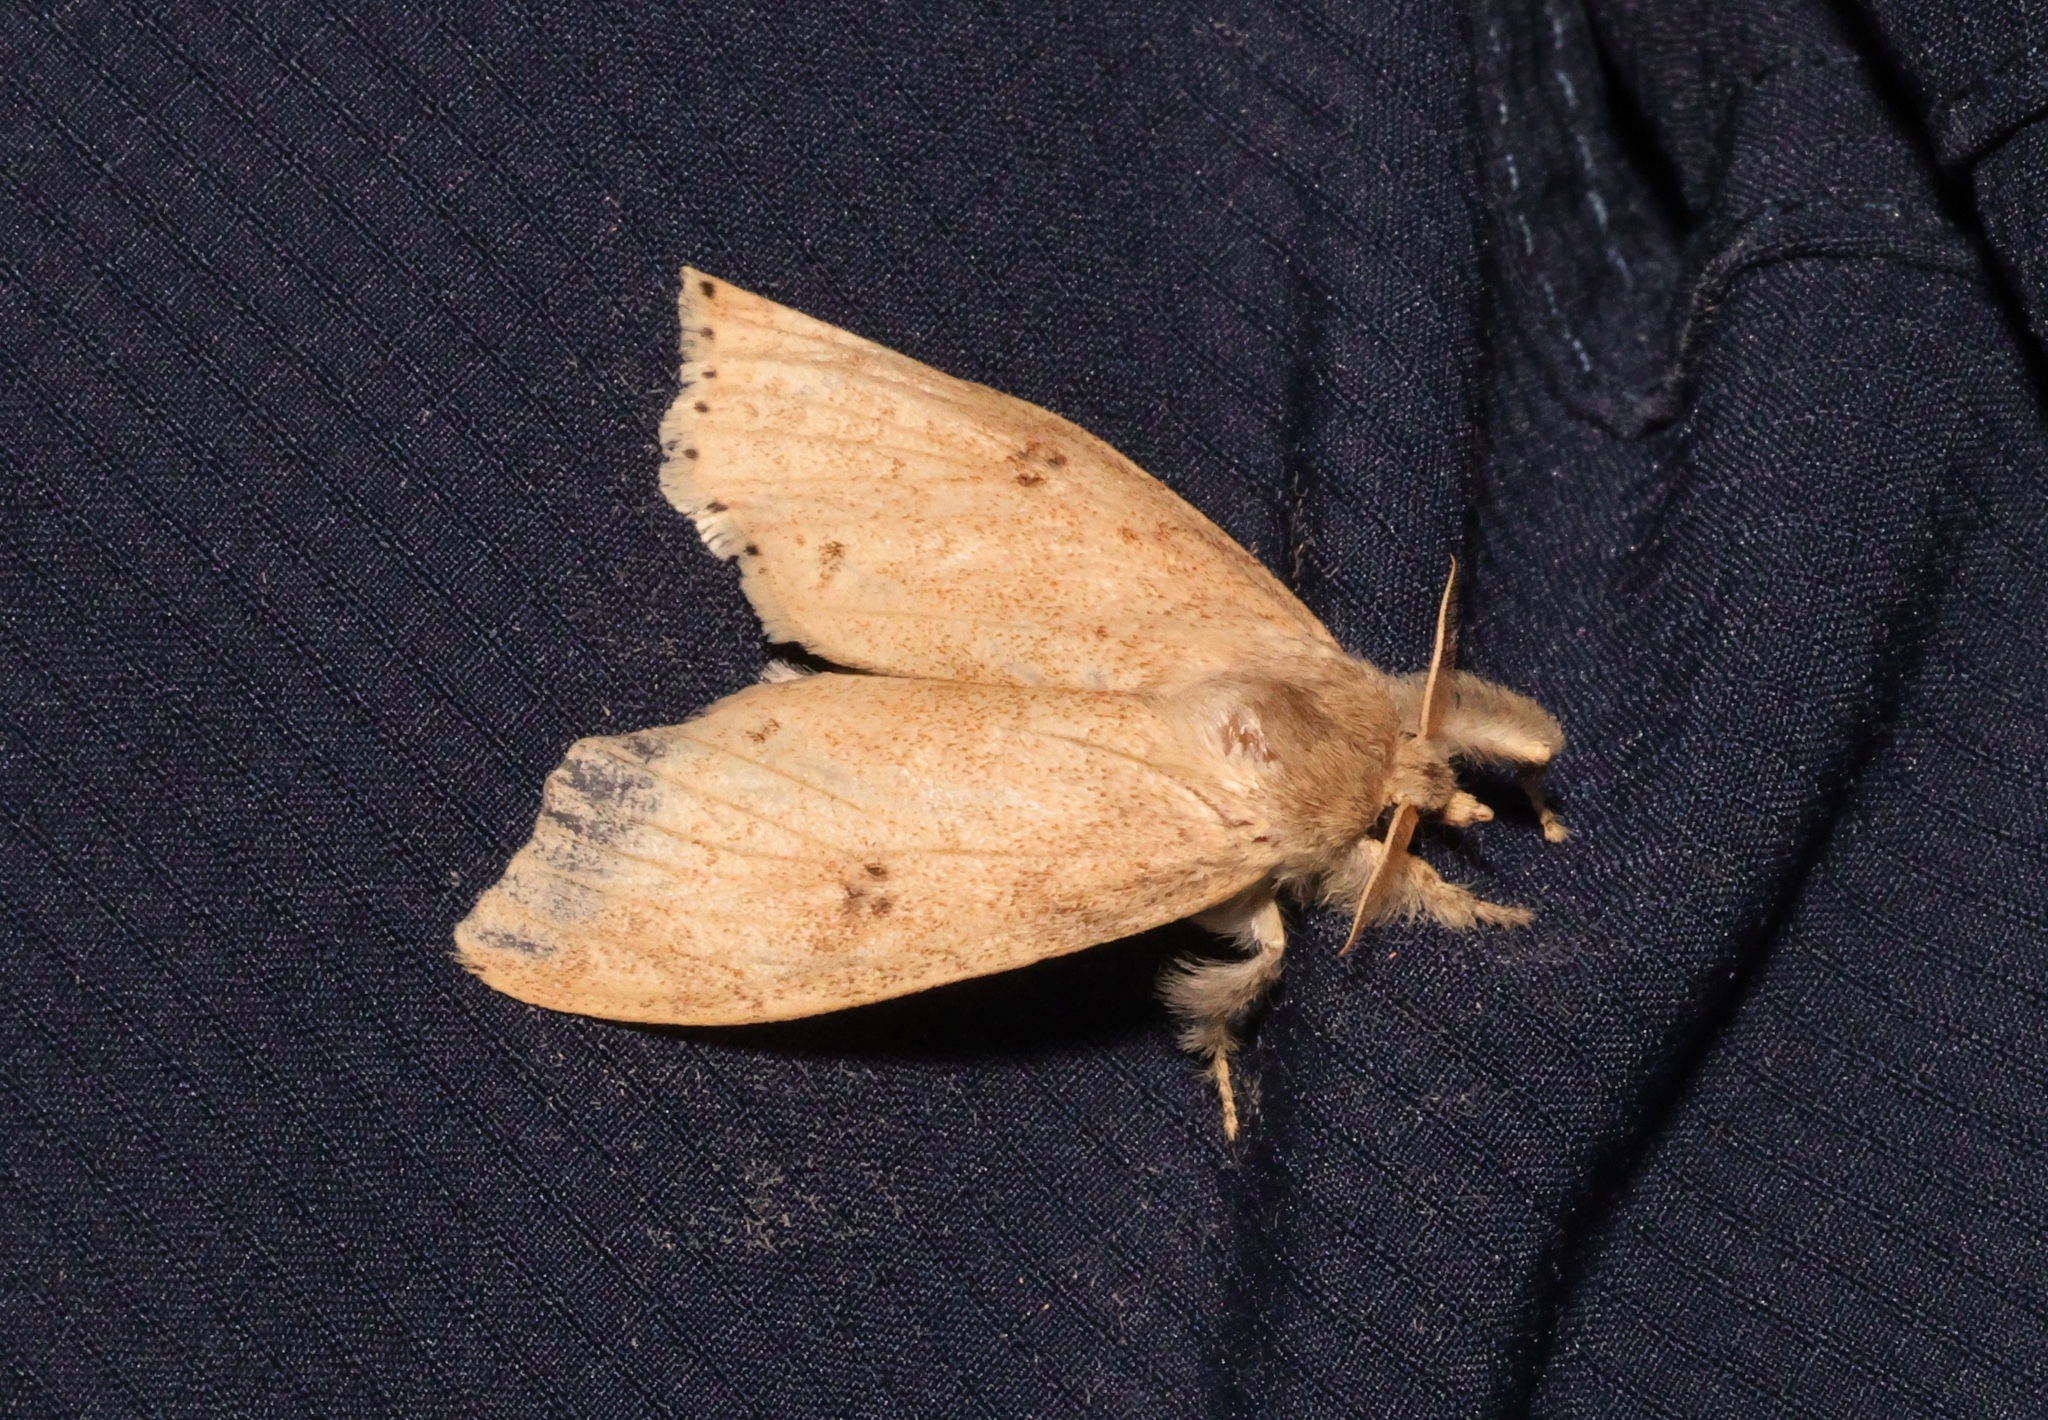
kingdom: Animalia
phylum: Arthropoda
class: Insecta
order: Lepidoptera
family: Erebidae
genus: Calliteara
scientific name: Calliteara angulata
